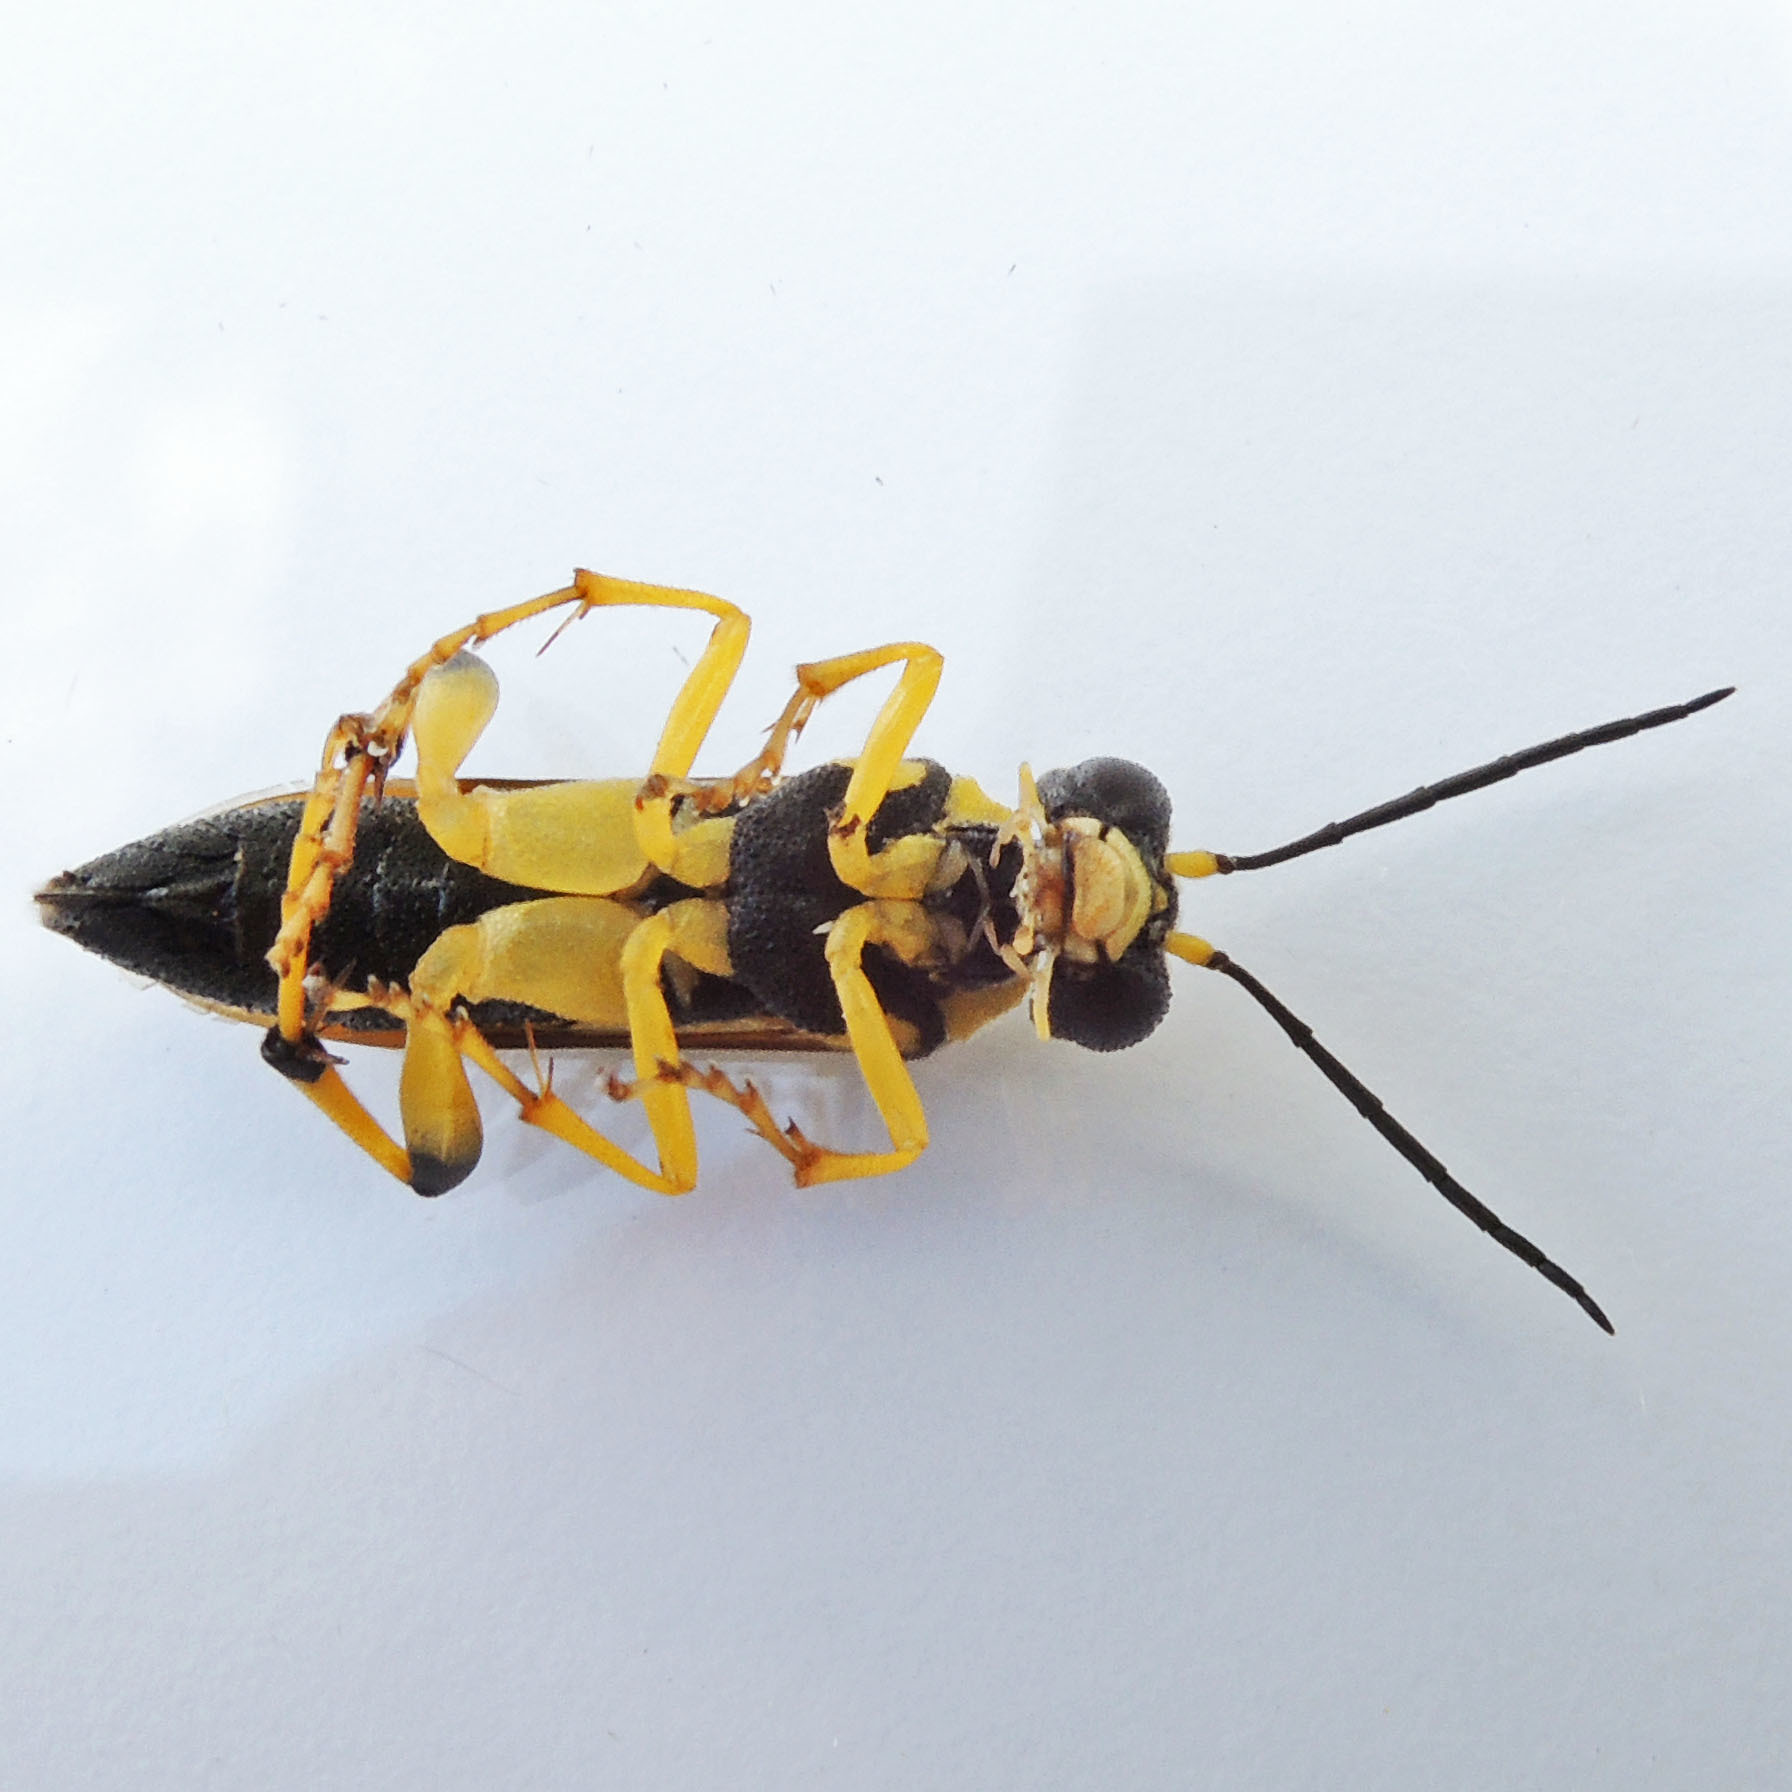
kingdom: Animalia
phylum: Arthropoda
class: Insecta
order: Hymenoptera
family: Tenthredinidae
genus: Macrophya
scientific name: Macrophya formosa
